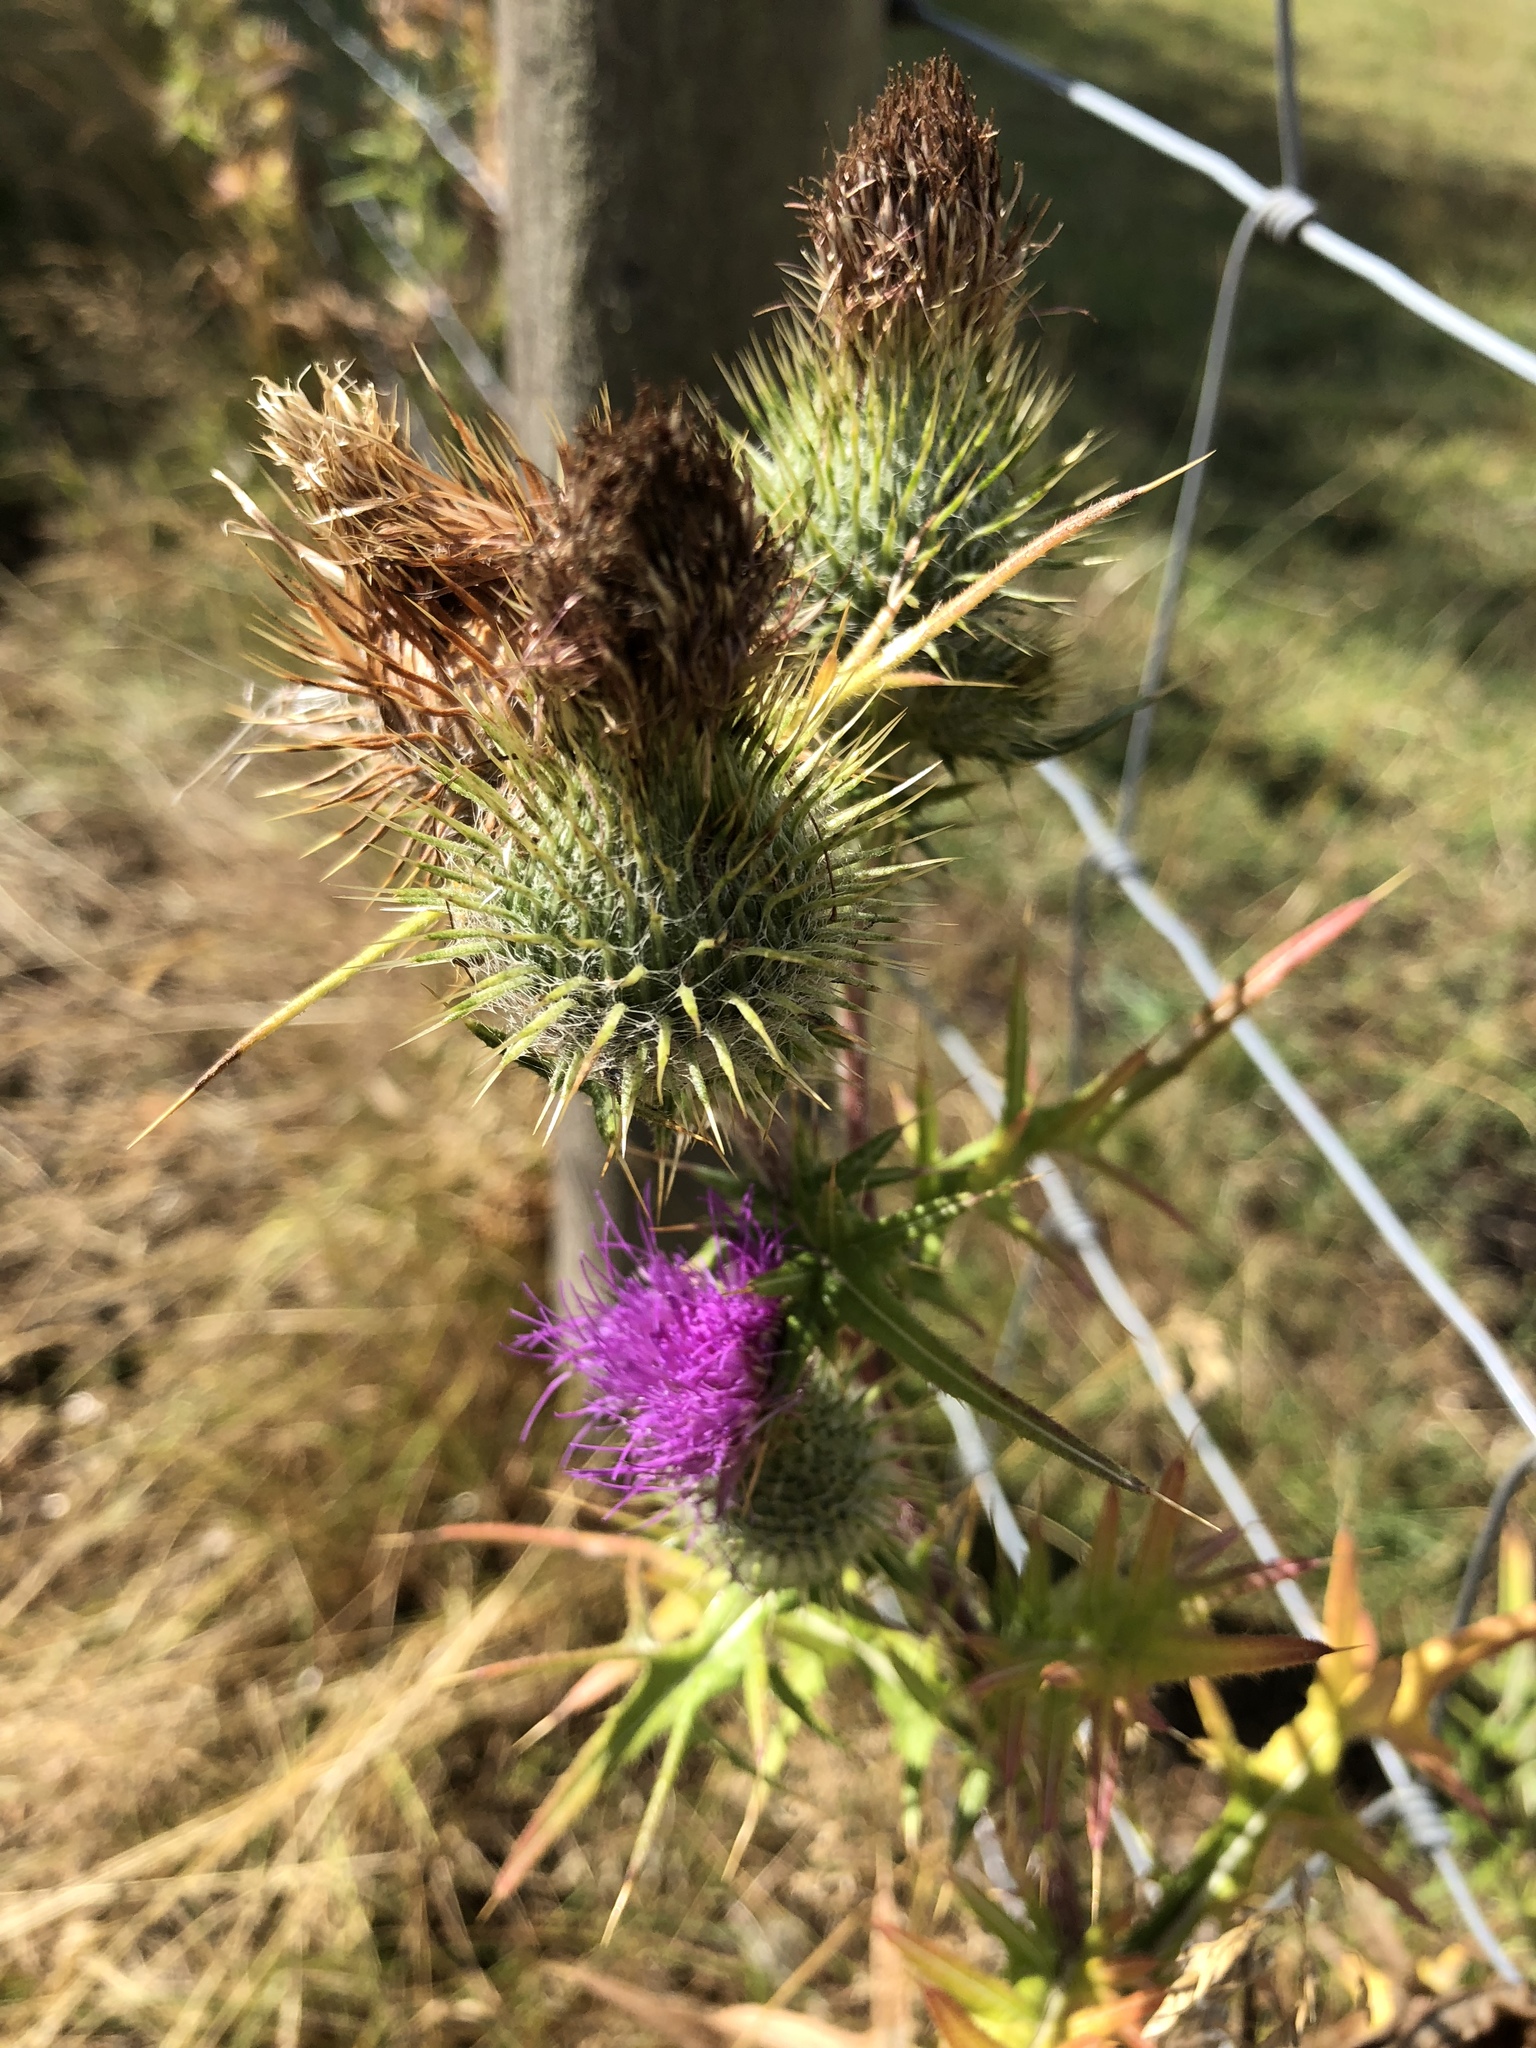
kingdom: Plantae
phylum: Tracheophyta
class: Magnoliopsida
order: Asterales
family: Asteraceae
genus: Cirsium
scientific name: Cirsium vulgare
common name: Bull thistle
